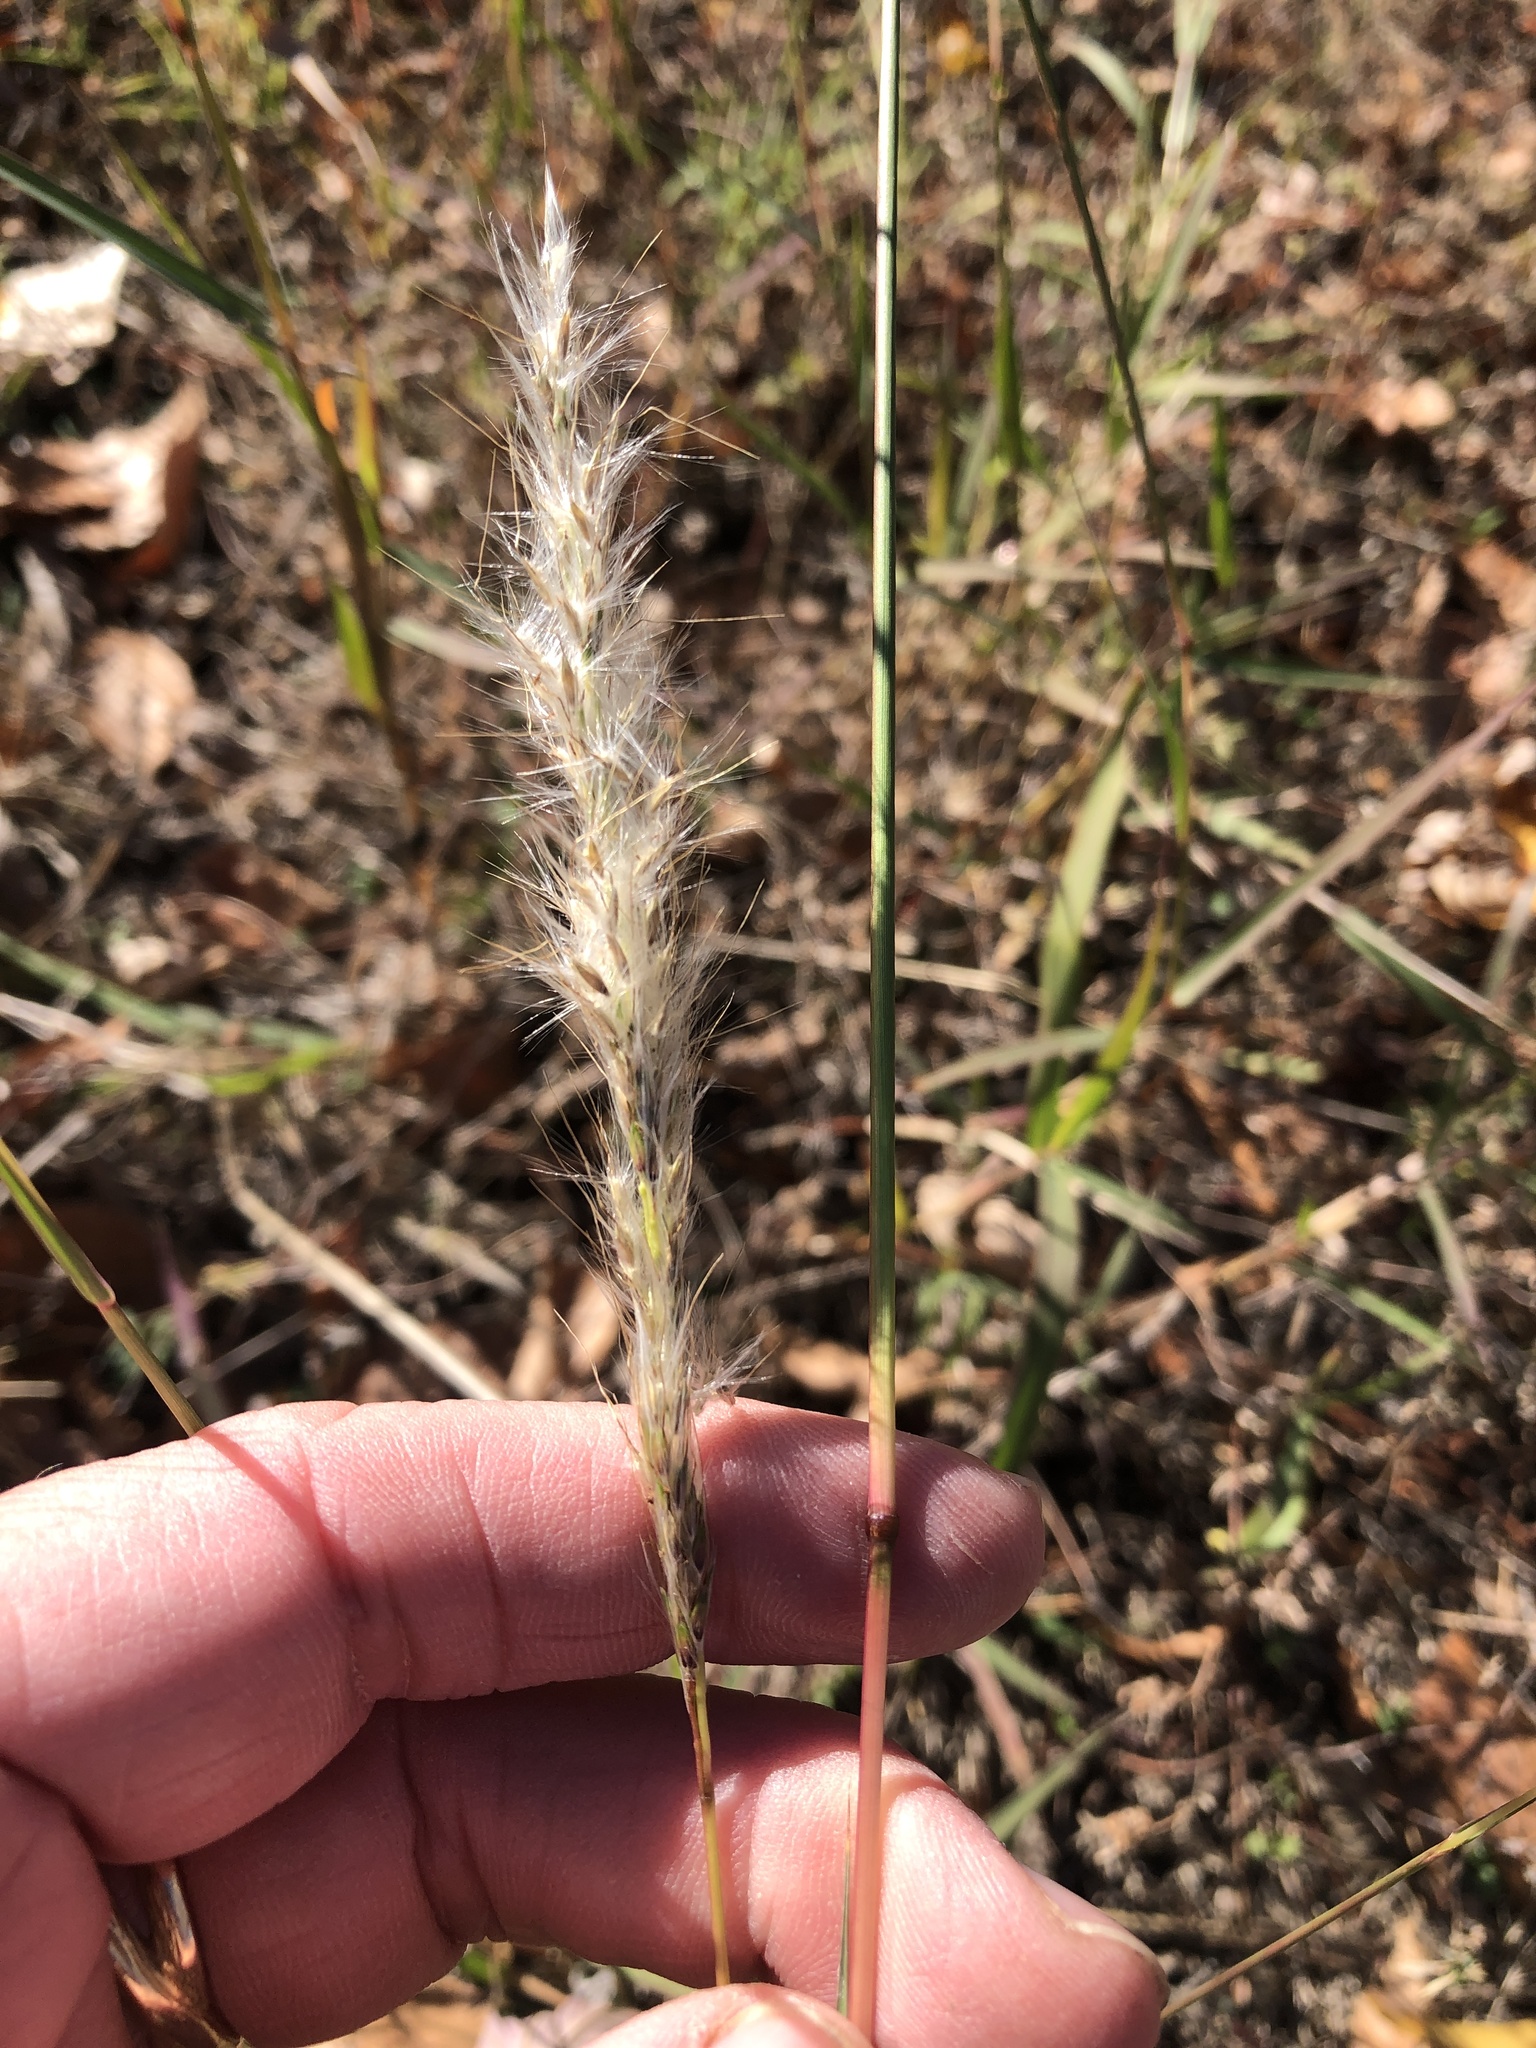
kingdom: Plantae
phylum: Tracheophyta
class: Liliopsida
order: Poales
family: Poaceae
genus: Bothriochloa
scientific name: Bothriochloa torreyana
